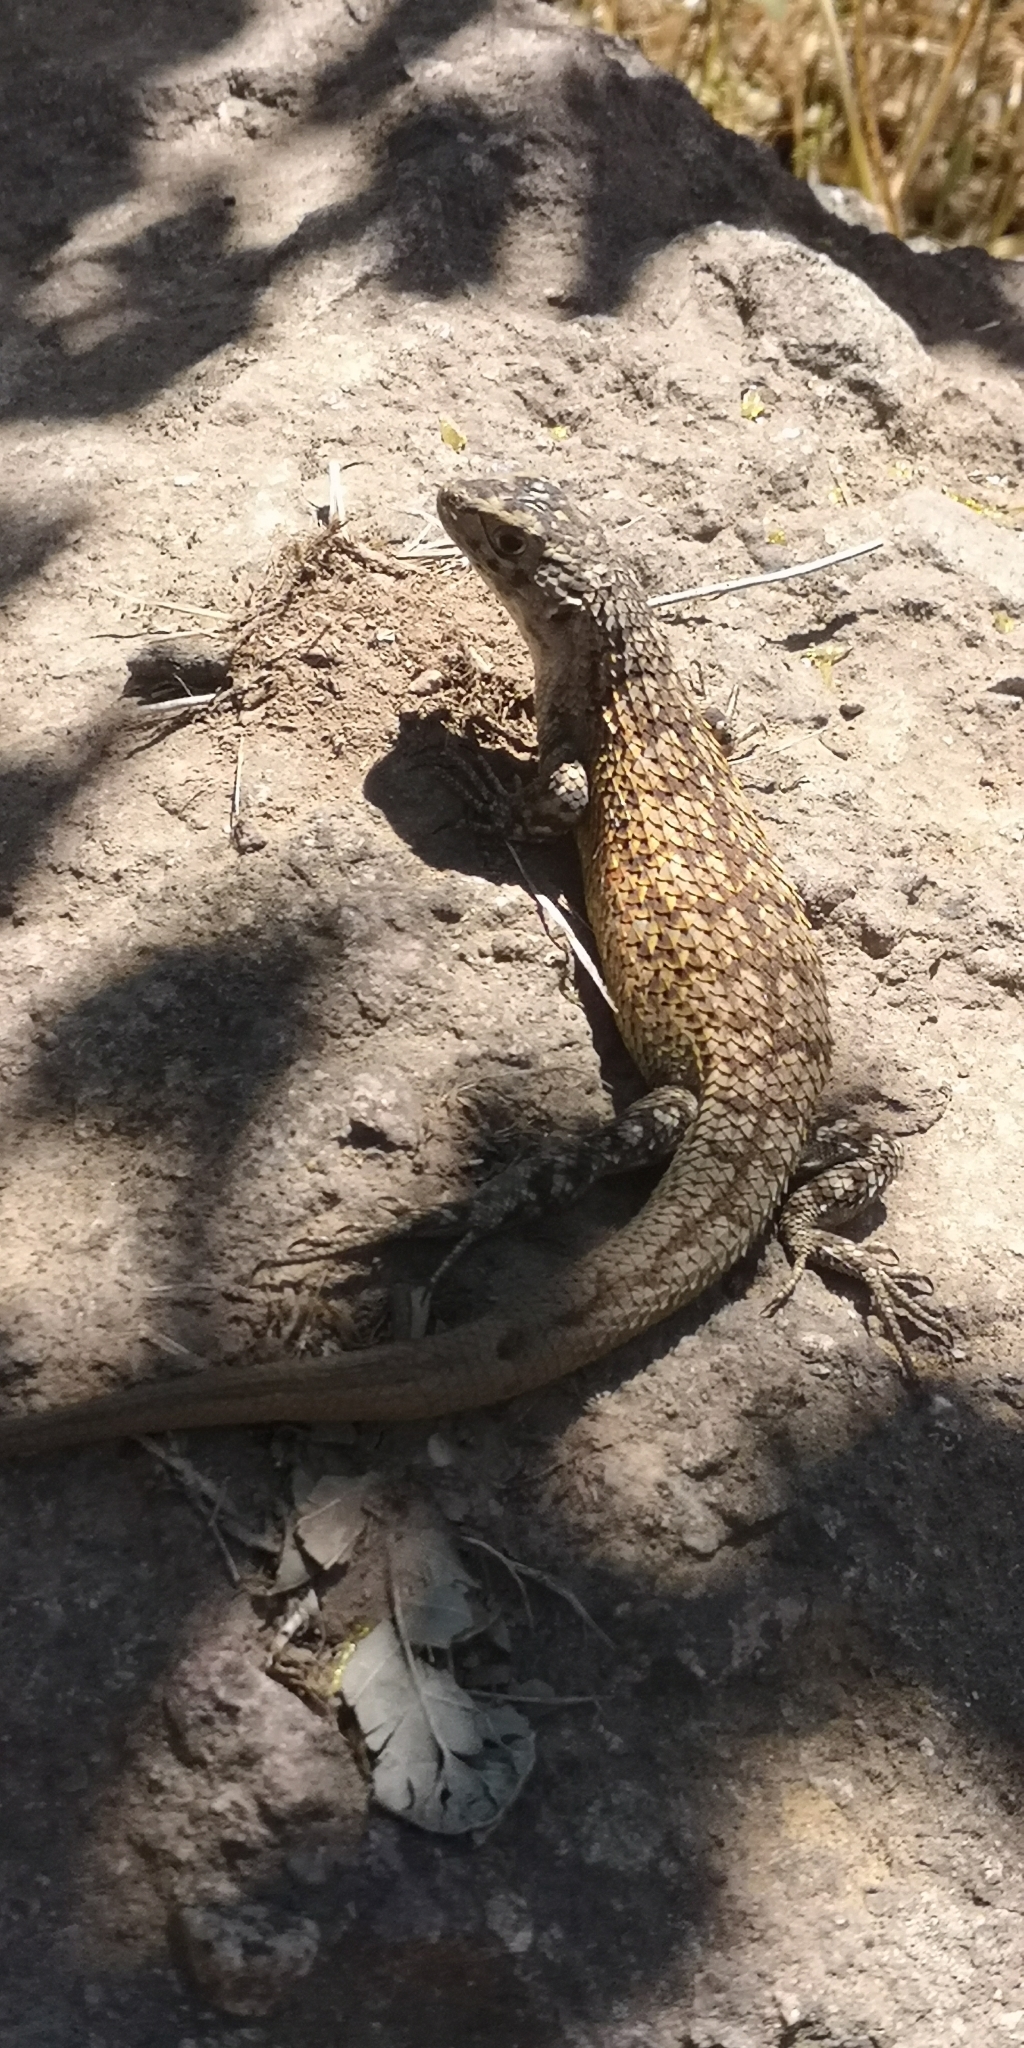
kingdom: Animalia
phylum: Chordata
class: Squamata
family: Liolaemidae
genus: Liolaemus
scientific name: Liolaemus nitidus
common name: Shining tree iguana
